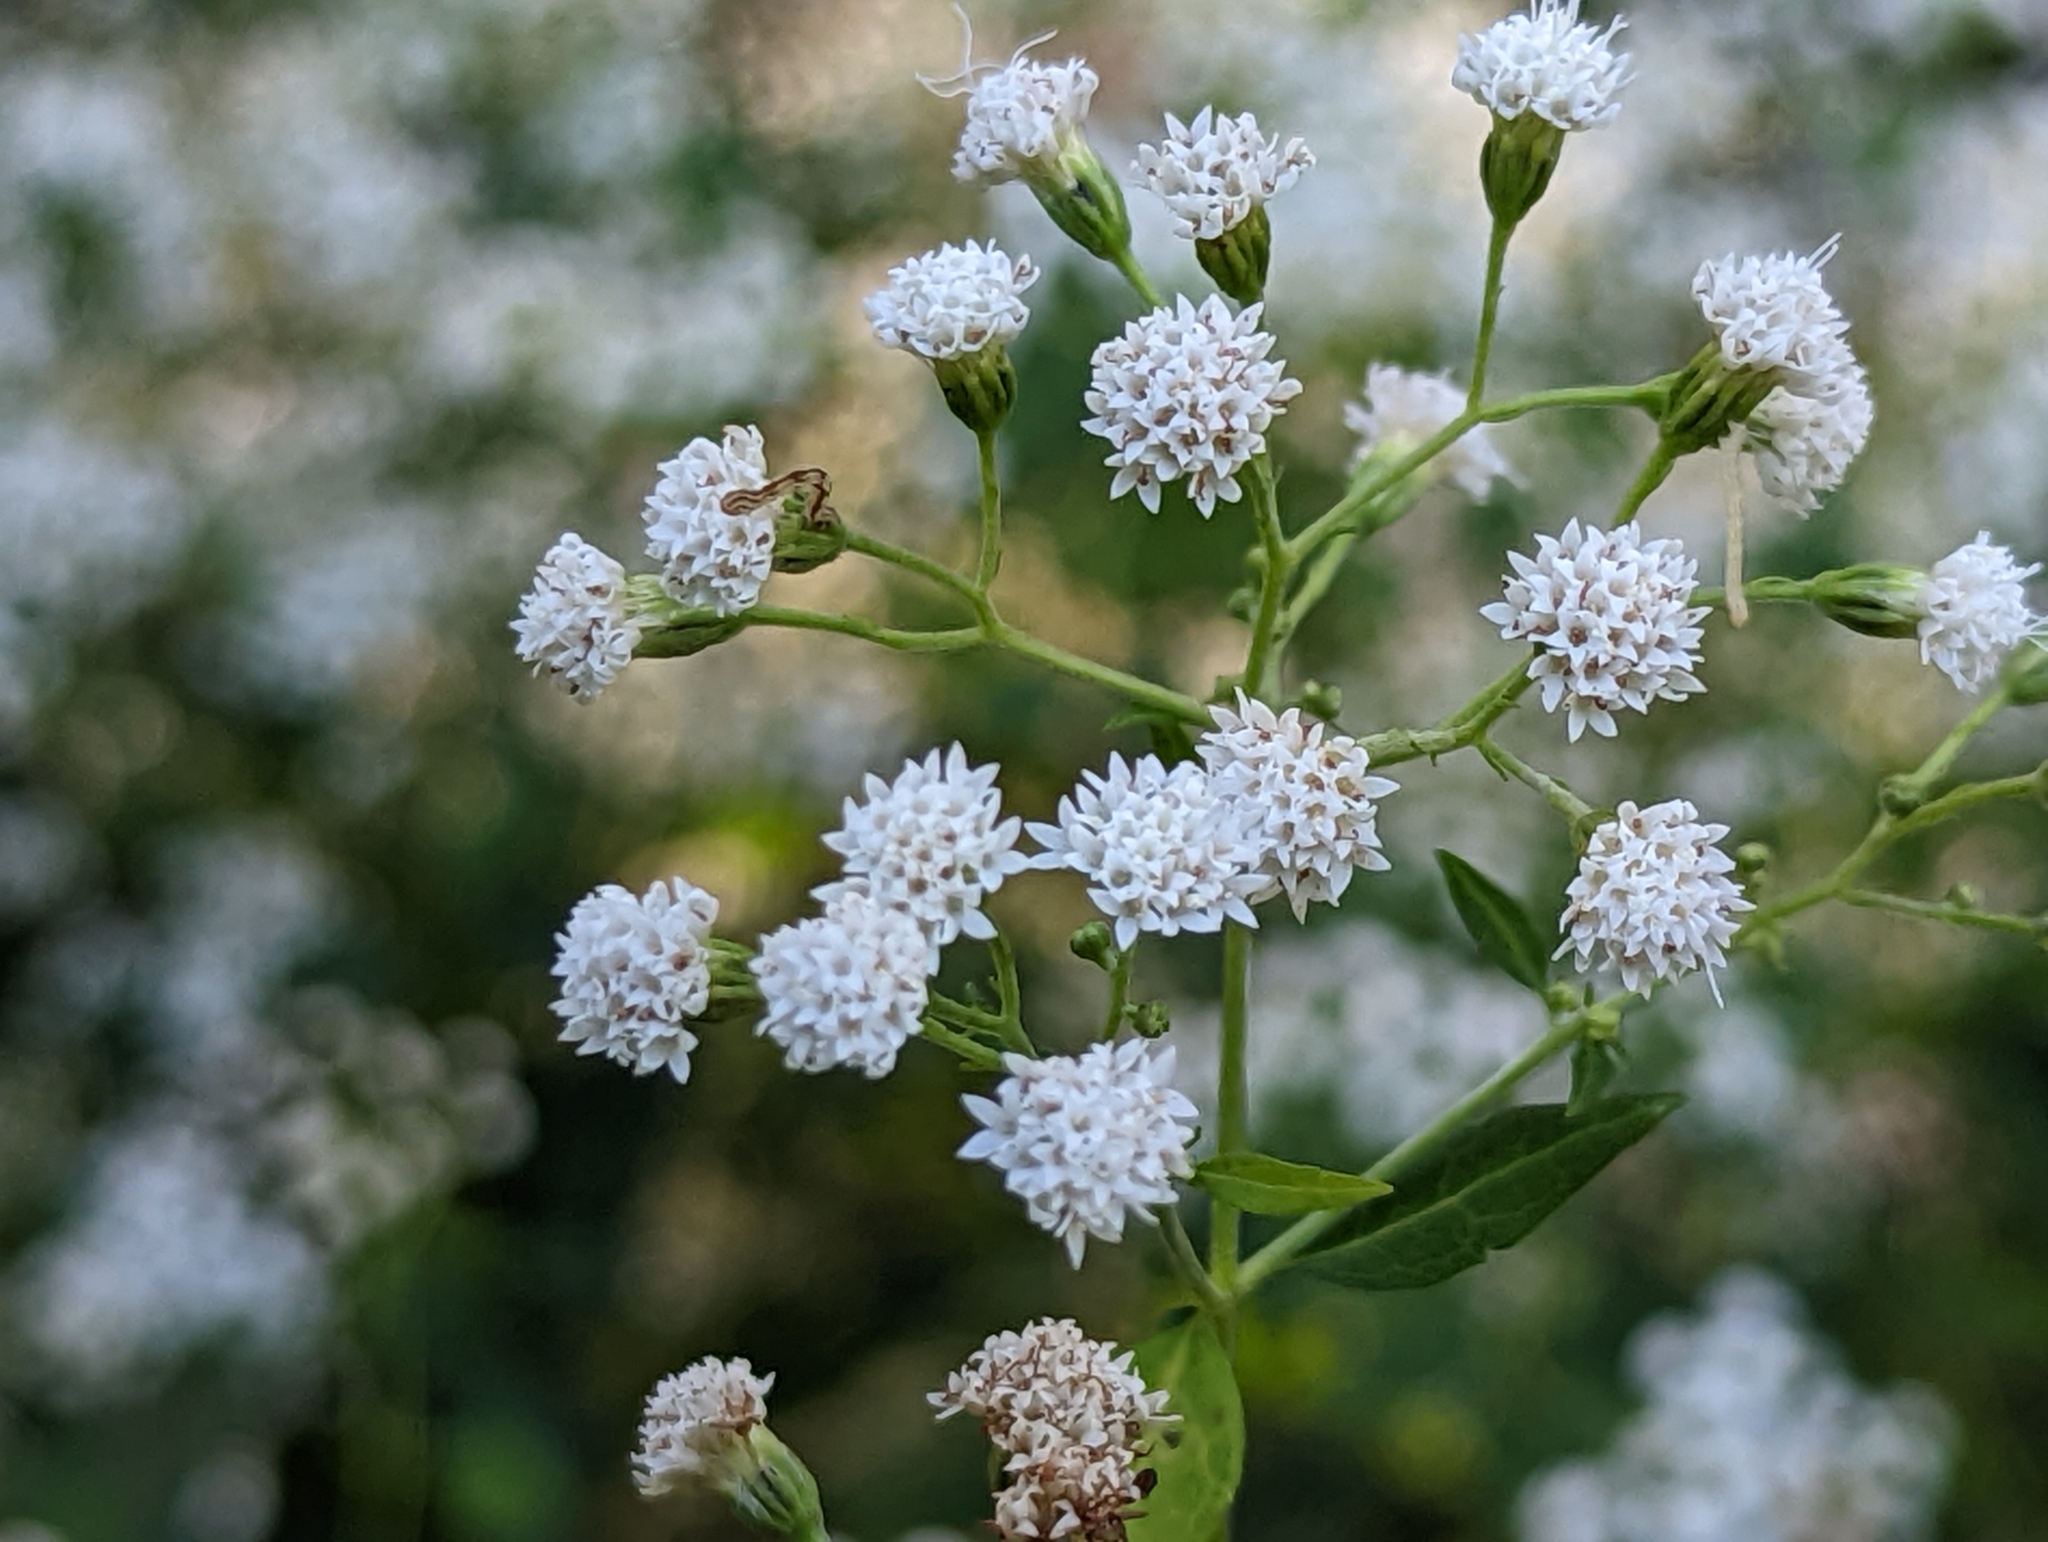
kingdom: Plantae
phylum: Tracheophyta
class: Magnoliopsida
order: Asterales
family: Asteraceae
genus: Ageratina
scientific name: Ageratina altissima
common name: White snakeroot
